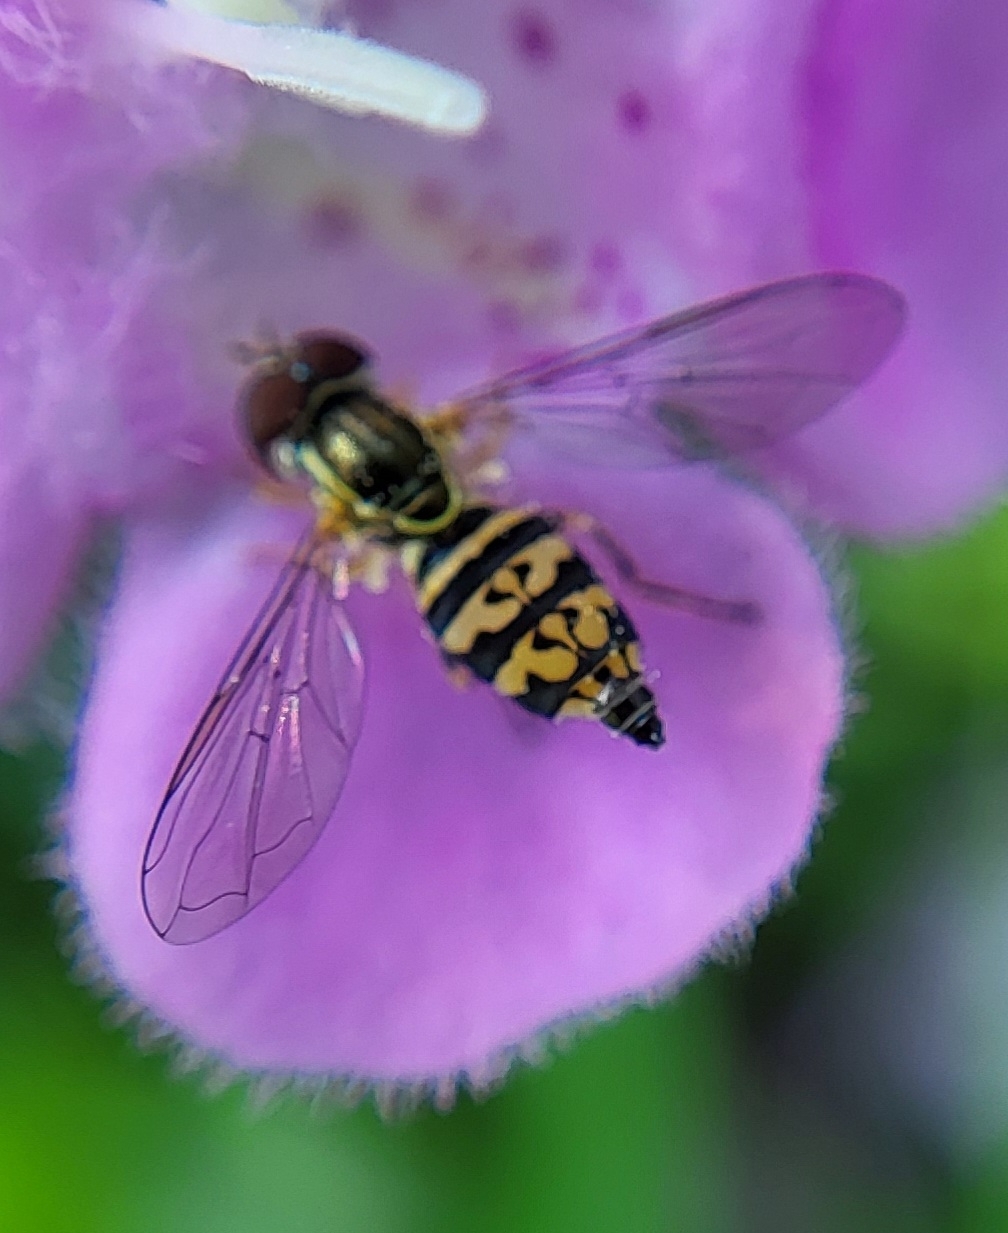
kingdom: Animalia
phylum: Arthropoda
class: Insecta
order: Diptera
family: Syrphidae
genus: Toxomerus
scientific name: Toxomerus geminatus
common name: Eastern calligrapher
